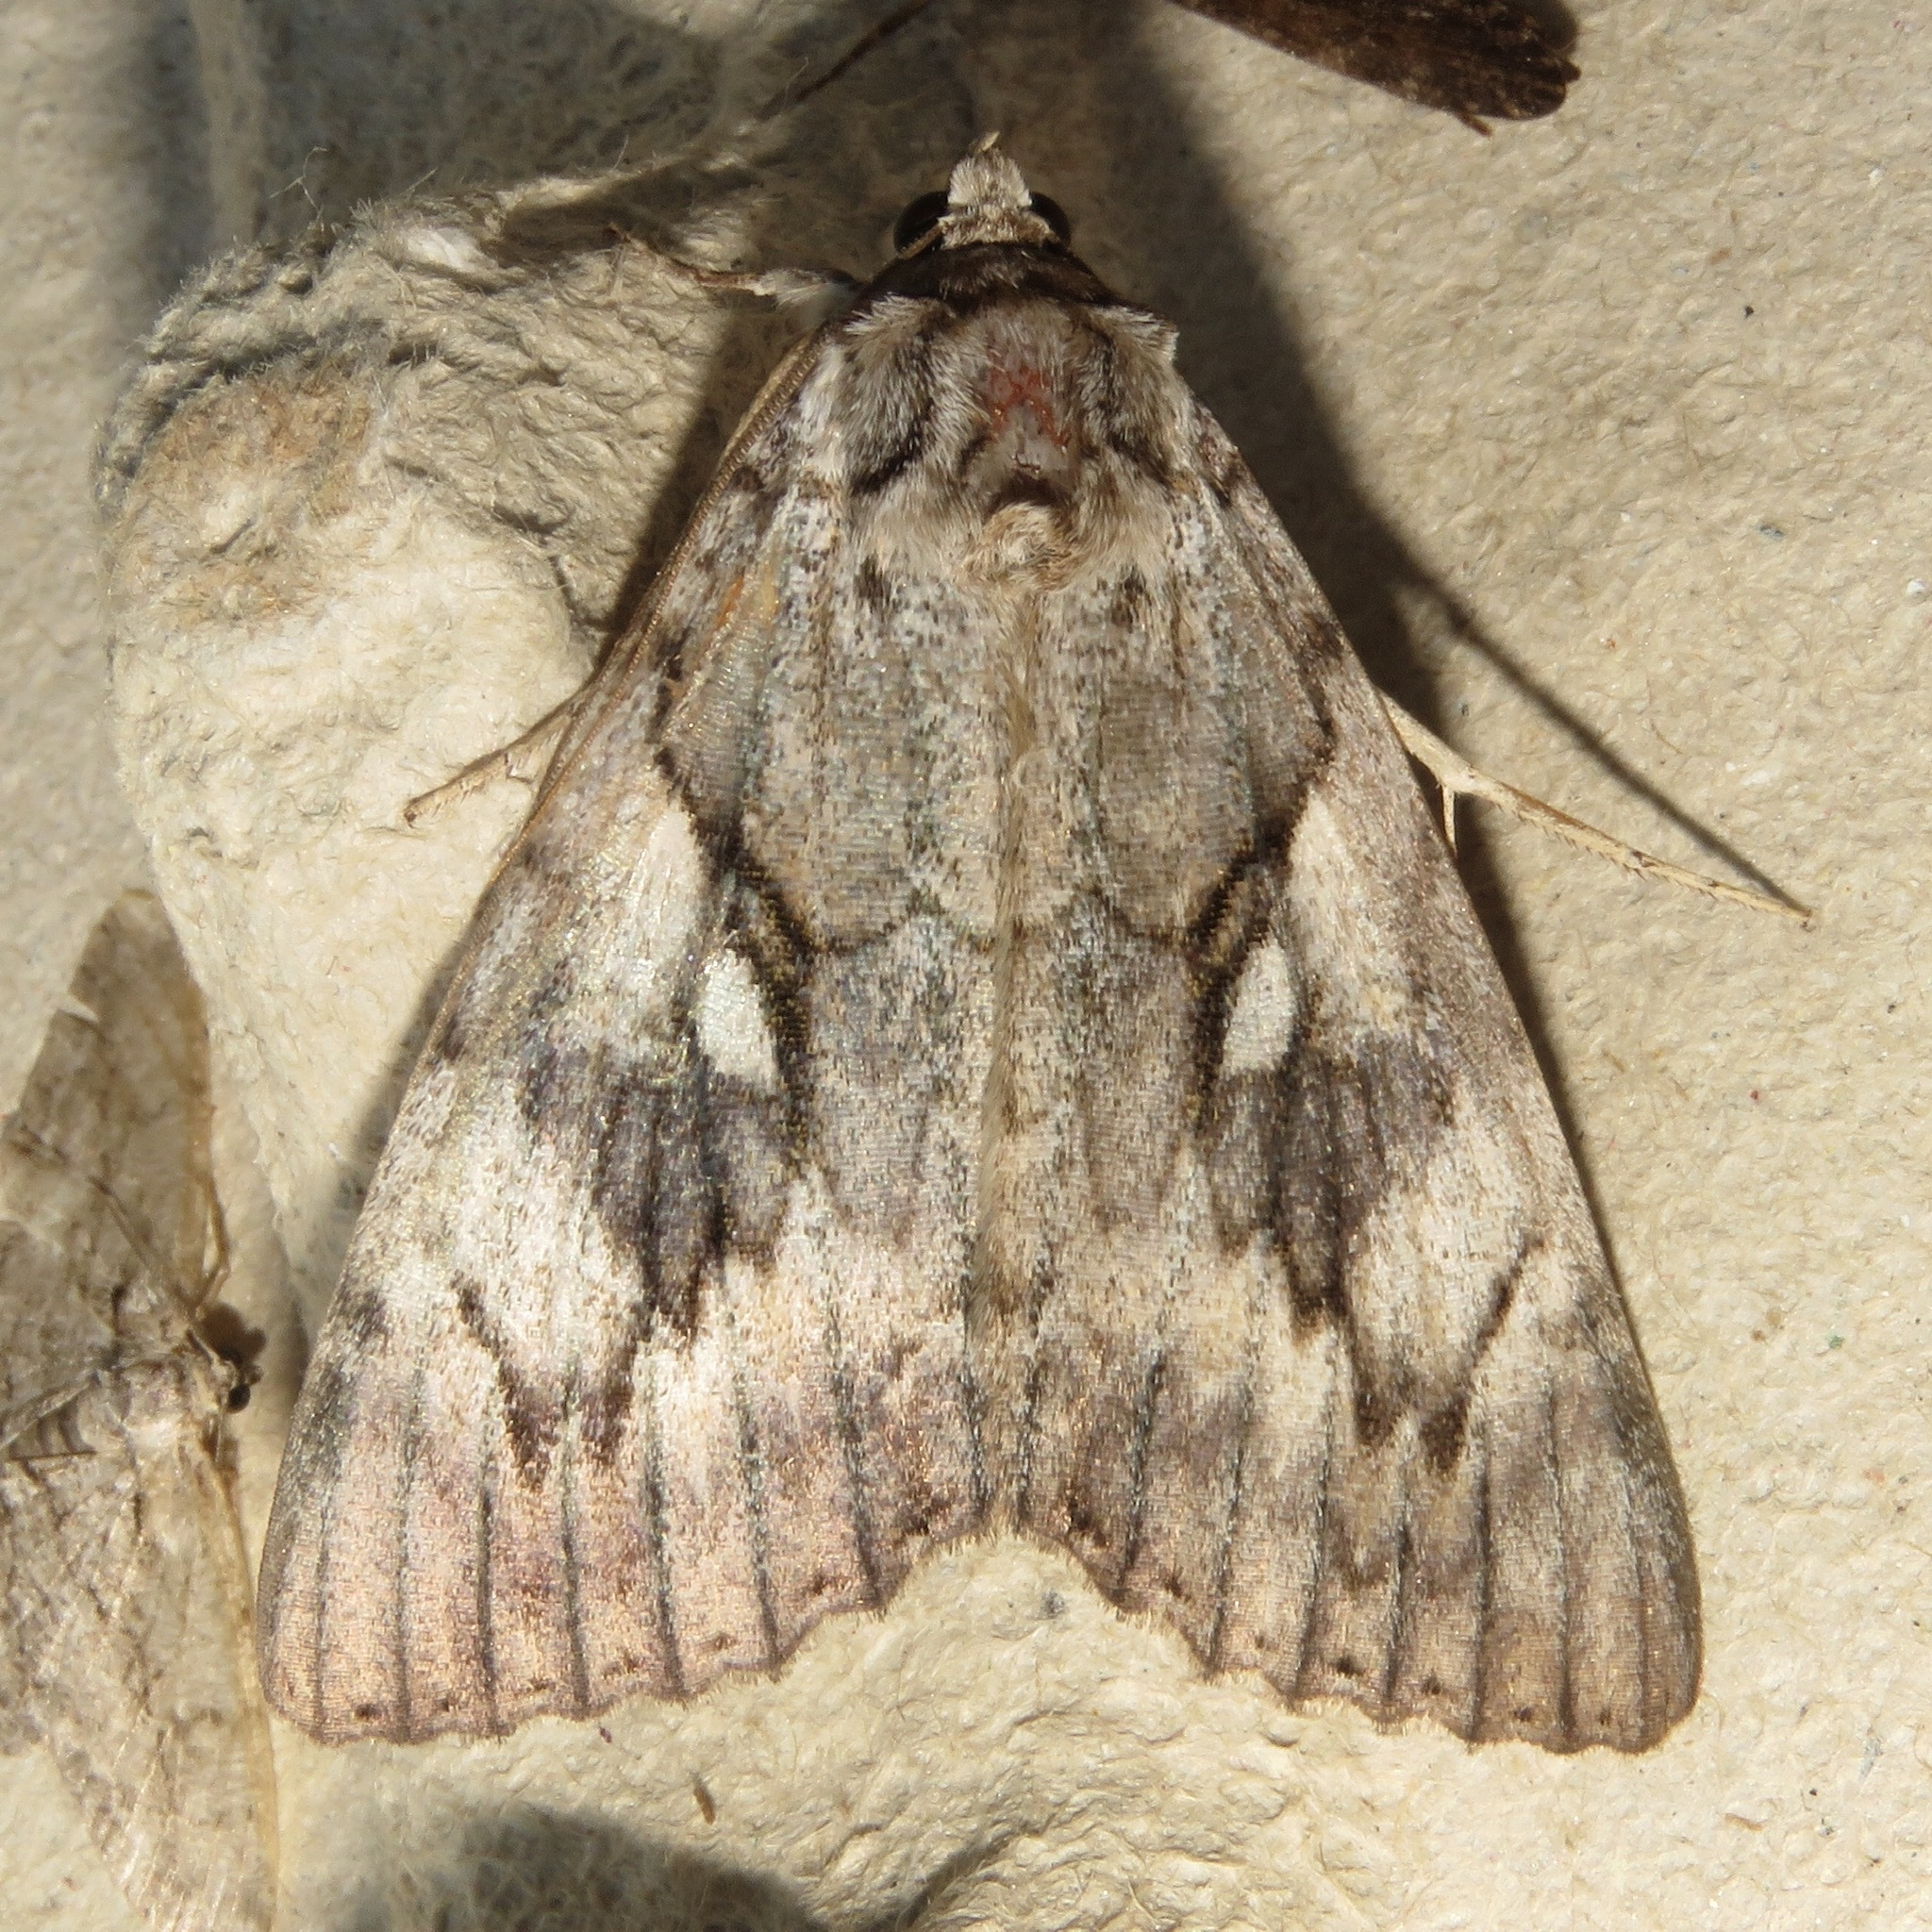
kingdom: Animalia
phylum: Arthropoda
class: Insecta
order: Lepidoptera
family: Erebidae
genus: Catocala
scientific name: Catocala cerogama
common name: Yellow banded underwing
